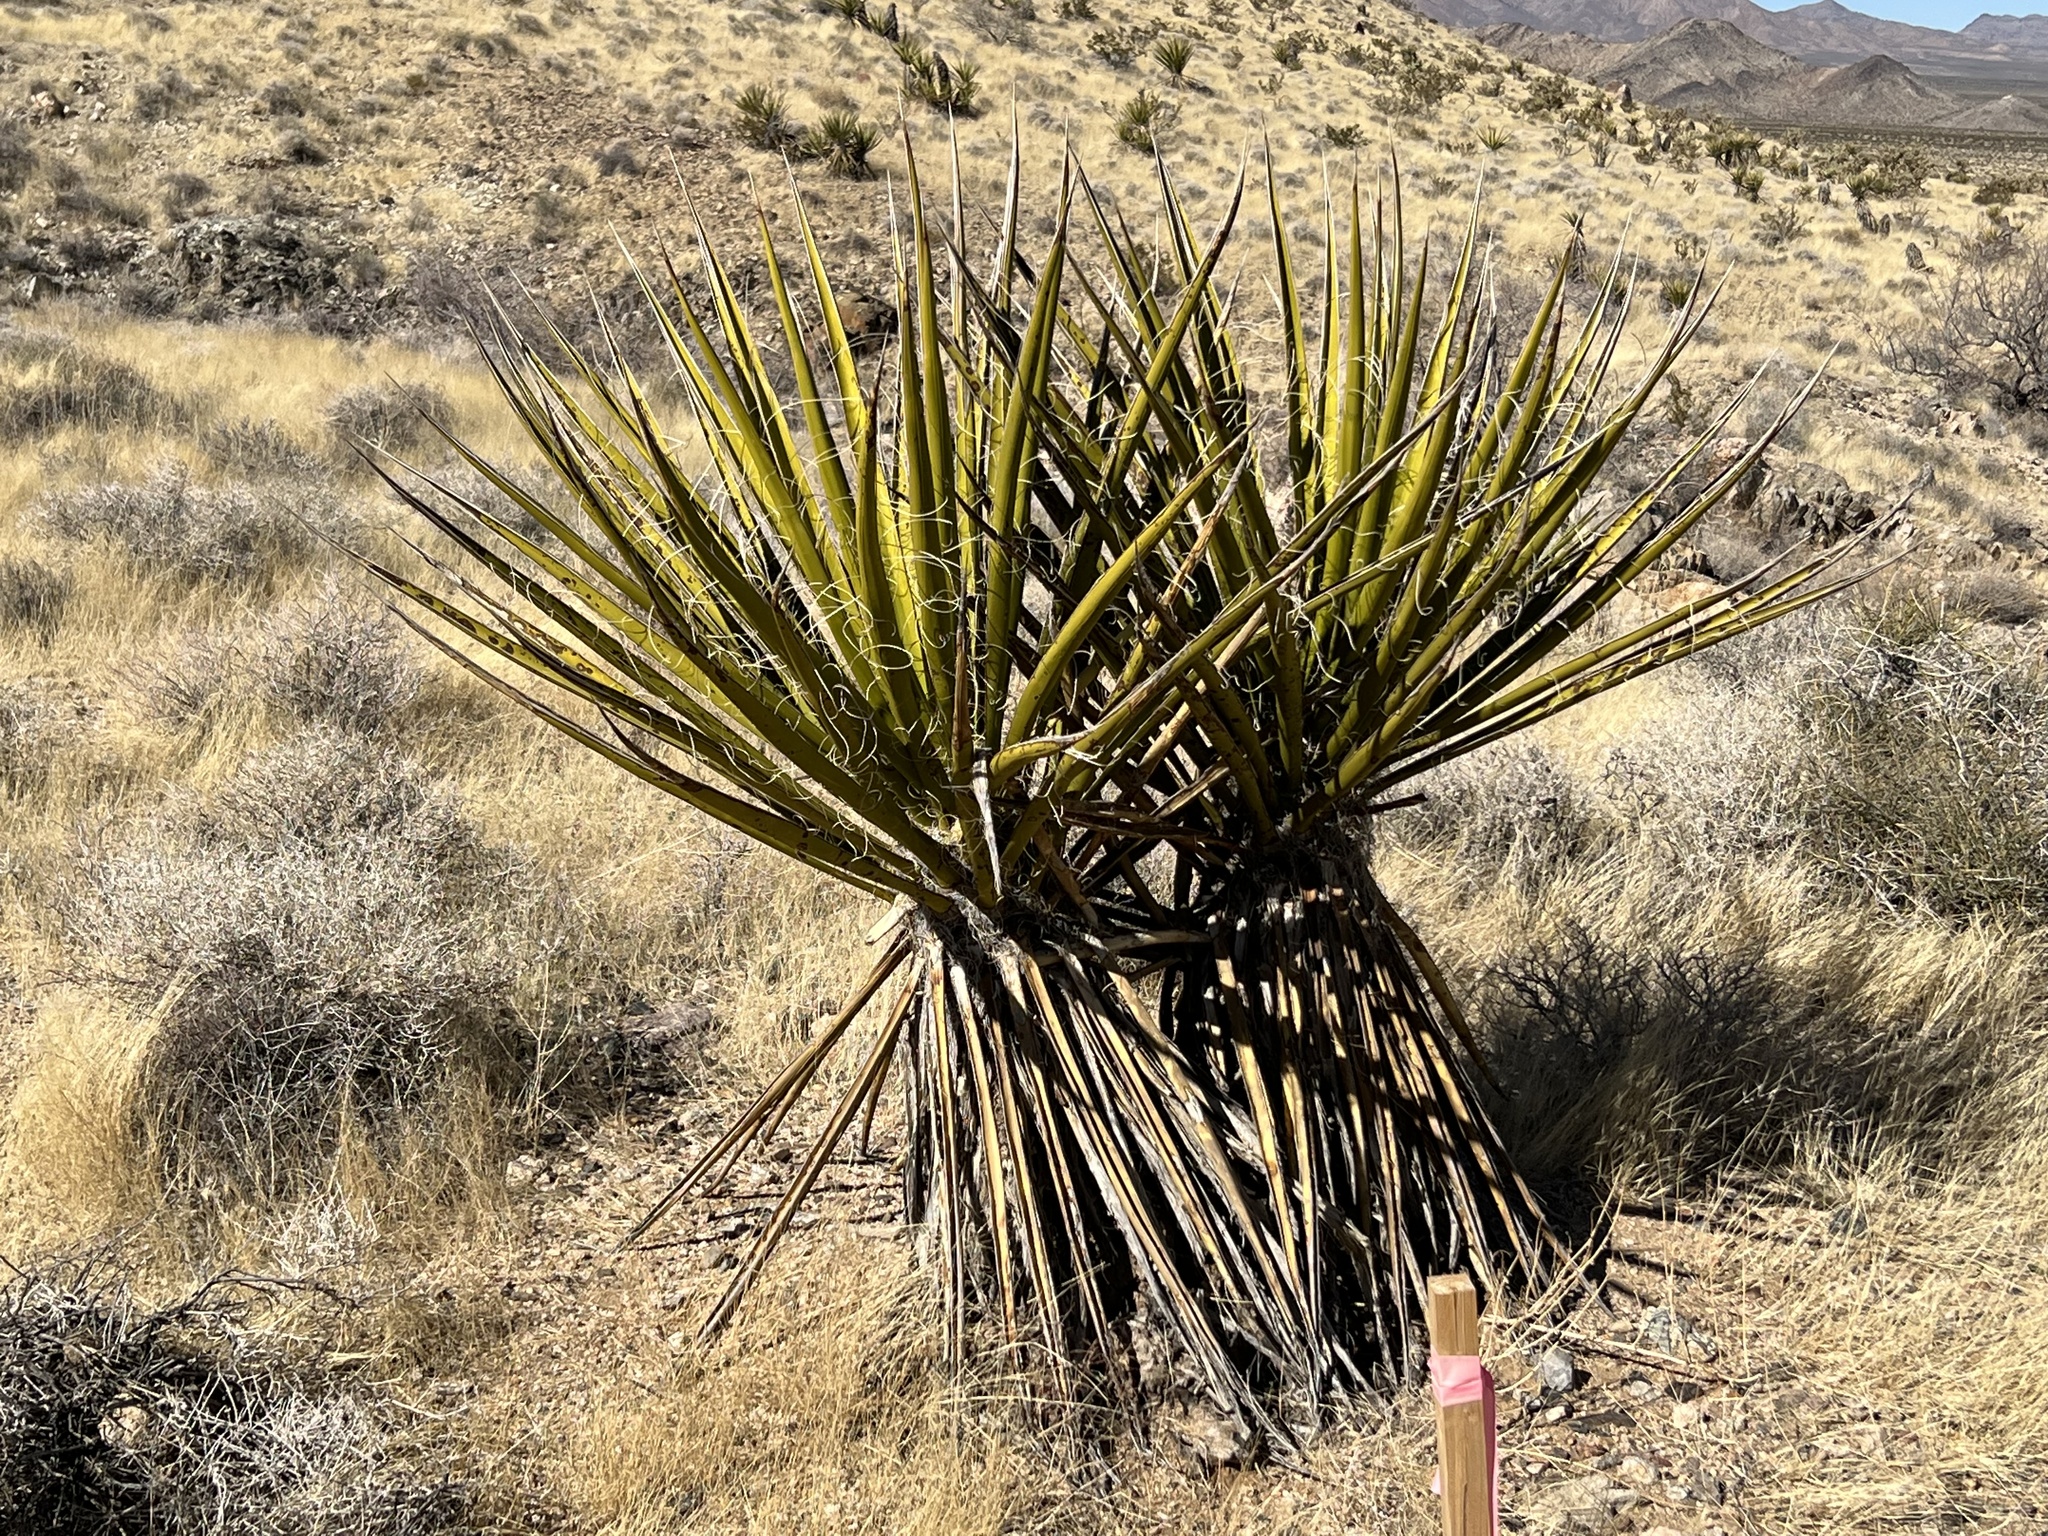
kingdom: Plantae
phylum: Tracheophyta
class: Liliopsida
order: Asparagales
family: Asparagaceae
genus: Yucca
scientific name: Yucca schidigera
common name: Mojave yucca
